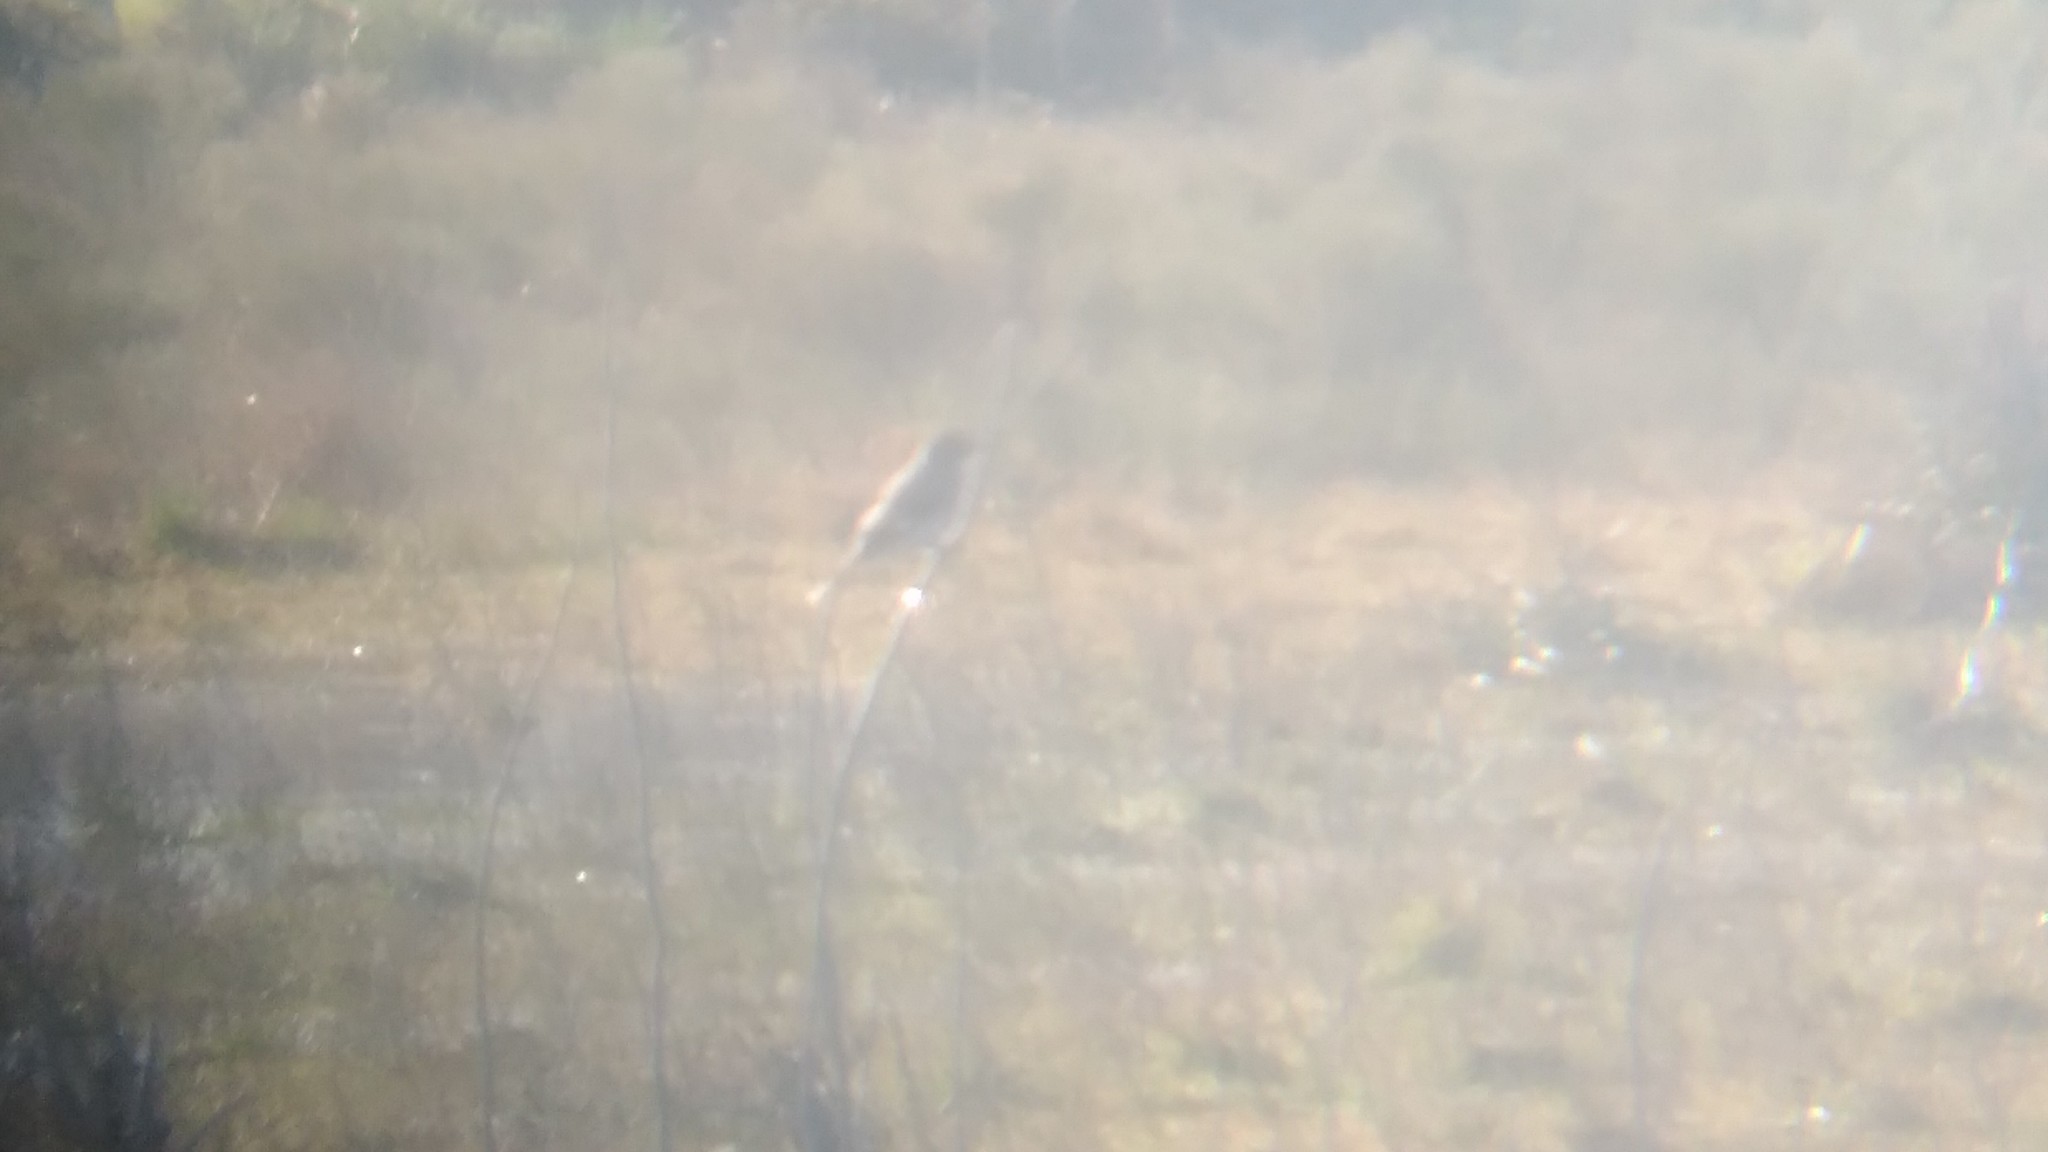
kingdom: Animalia
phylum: Chordata
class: Aves
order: Passeriformes
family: Tyrannidae
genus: Xolmis
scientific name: Xolmis cinereus
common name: Grey monjita
